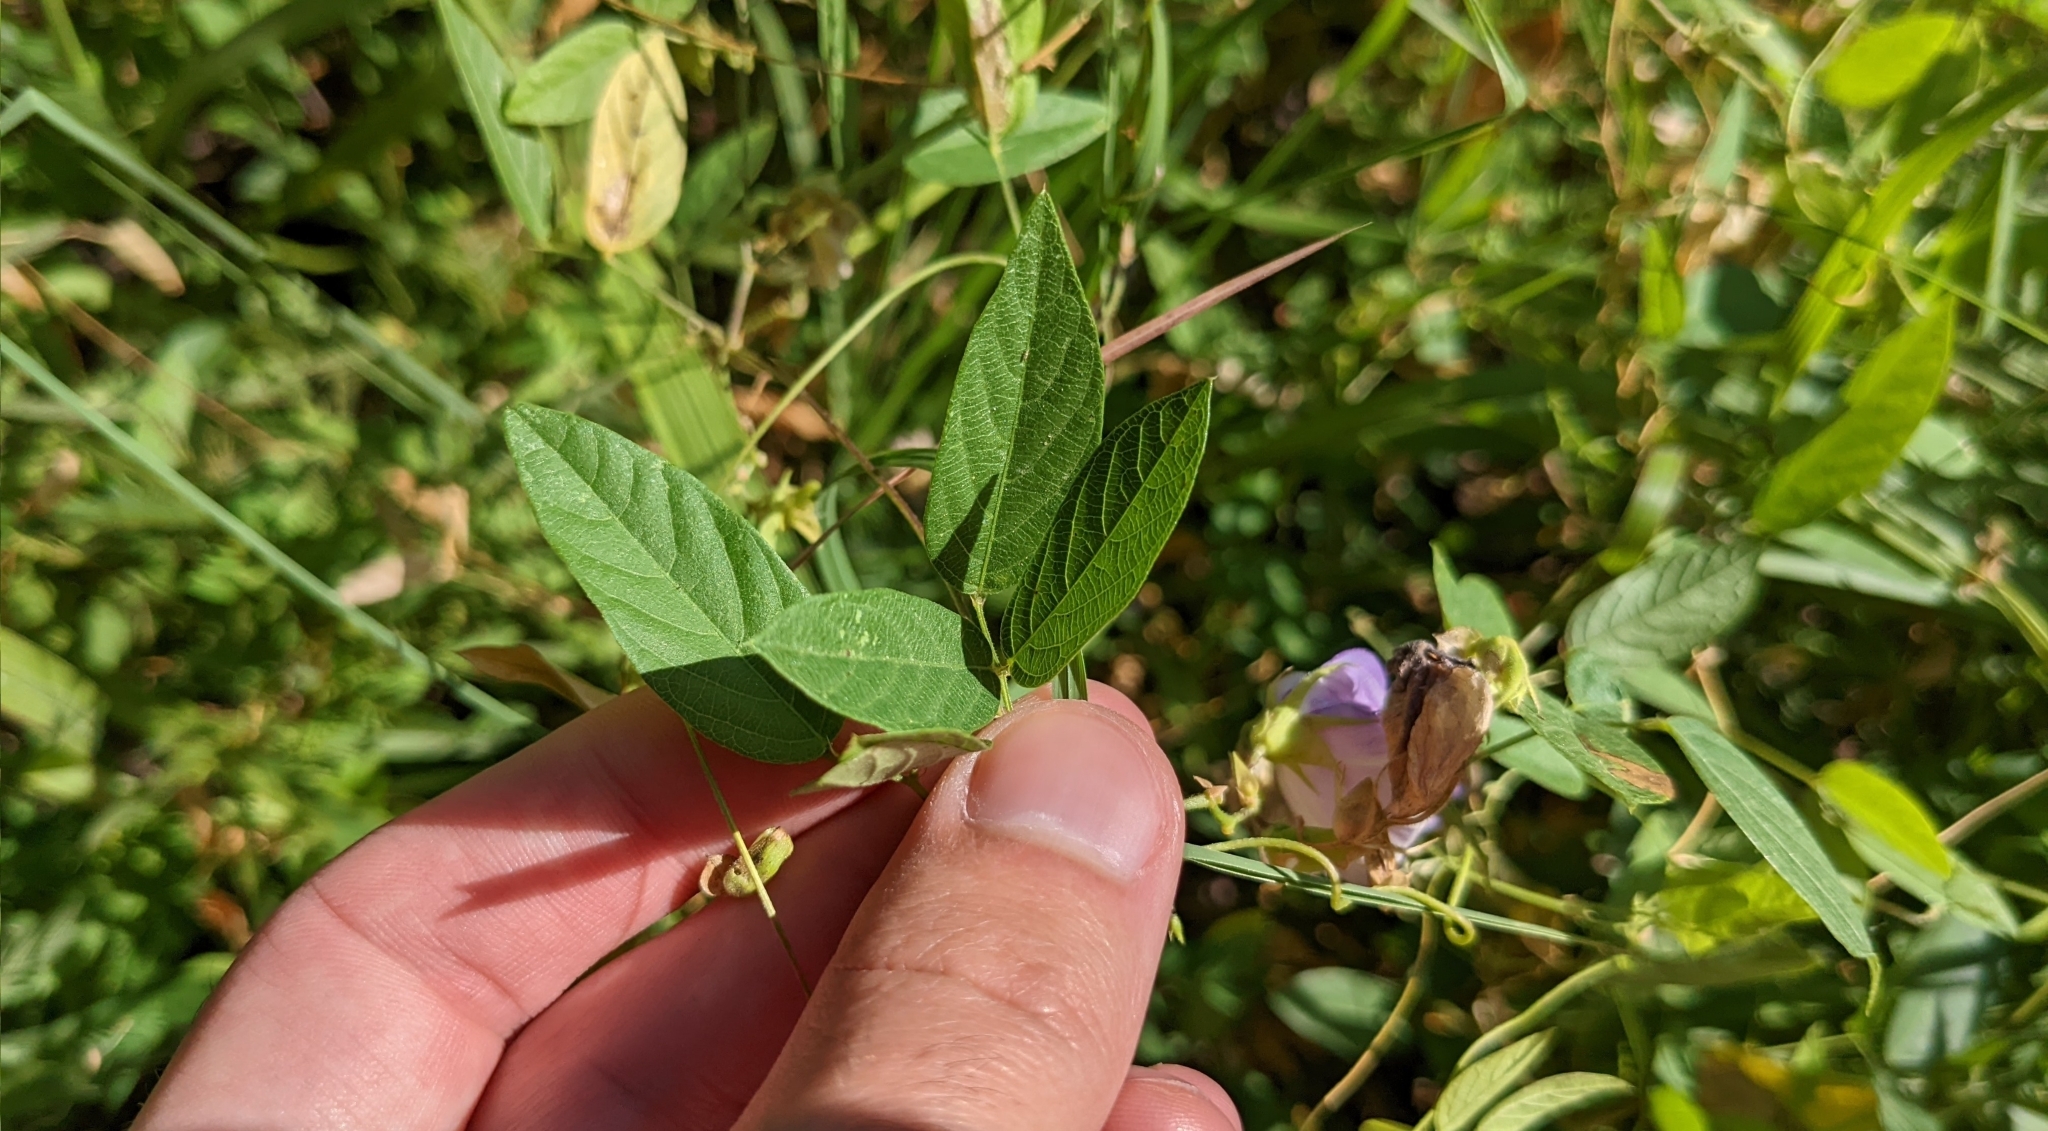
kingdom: Plantae
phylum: Tracheophyta
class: Magnoliopsida
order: Fabales
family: Fabaceae
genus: Centrosema
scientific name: Centrosema virginianum
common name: Butterfly-pea
